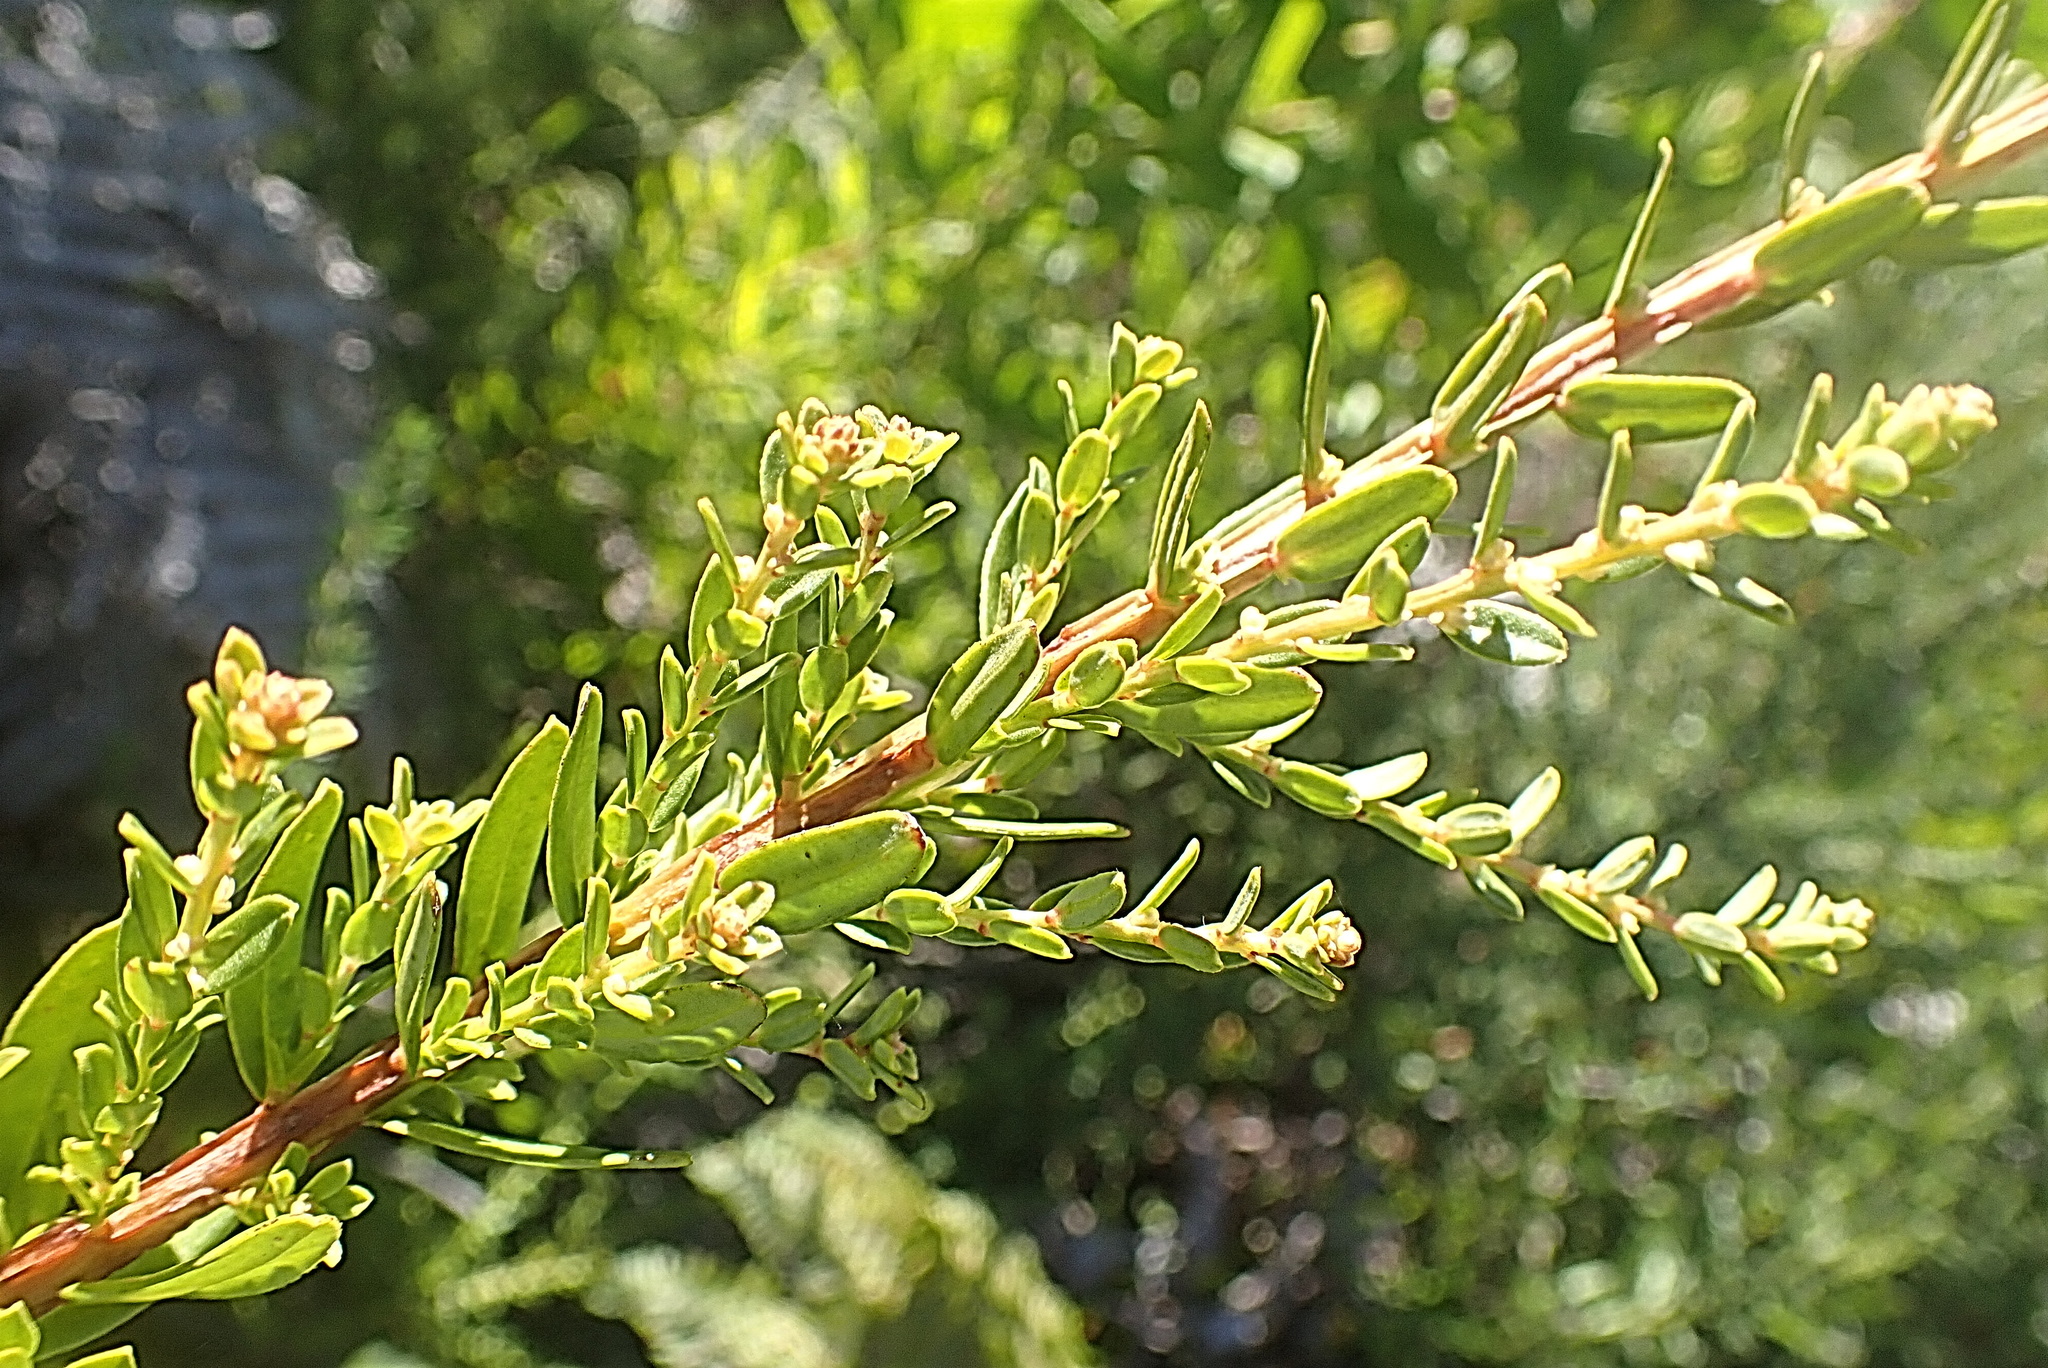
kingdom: Plantae
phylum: Tracheophyta
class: Magnoliopsida
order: Malpighiales
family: Peraceae
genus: Clutia
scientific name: Clutia laxa
